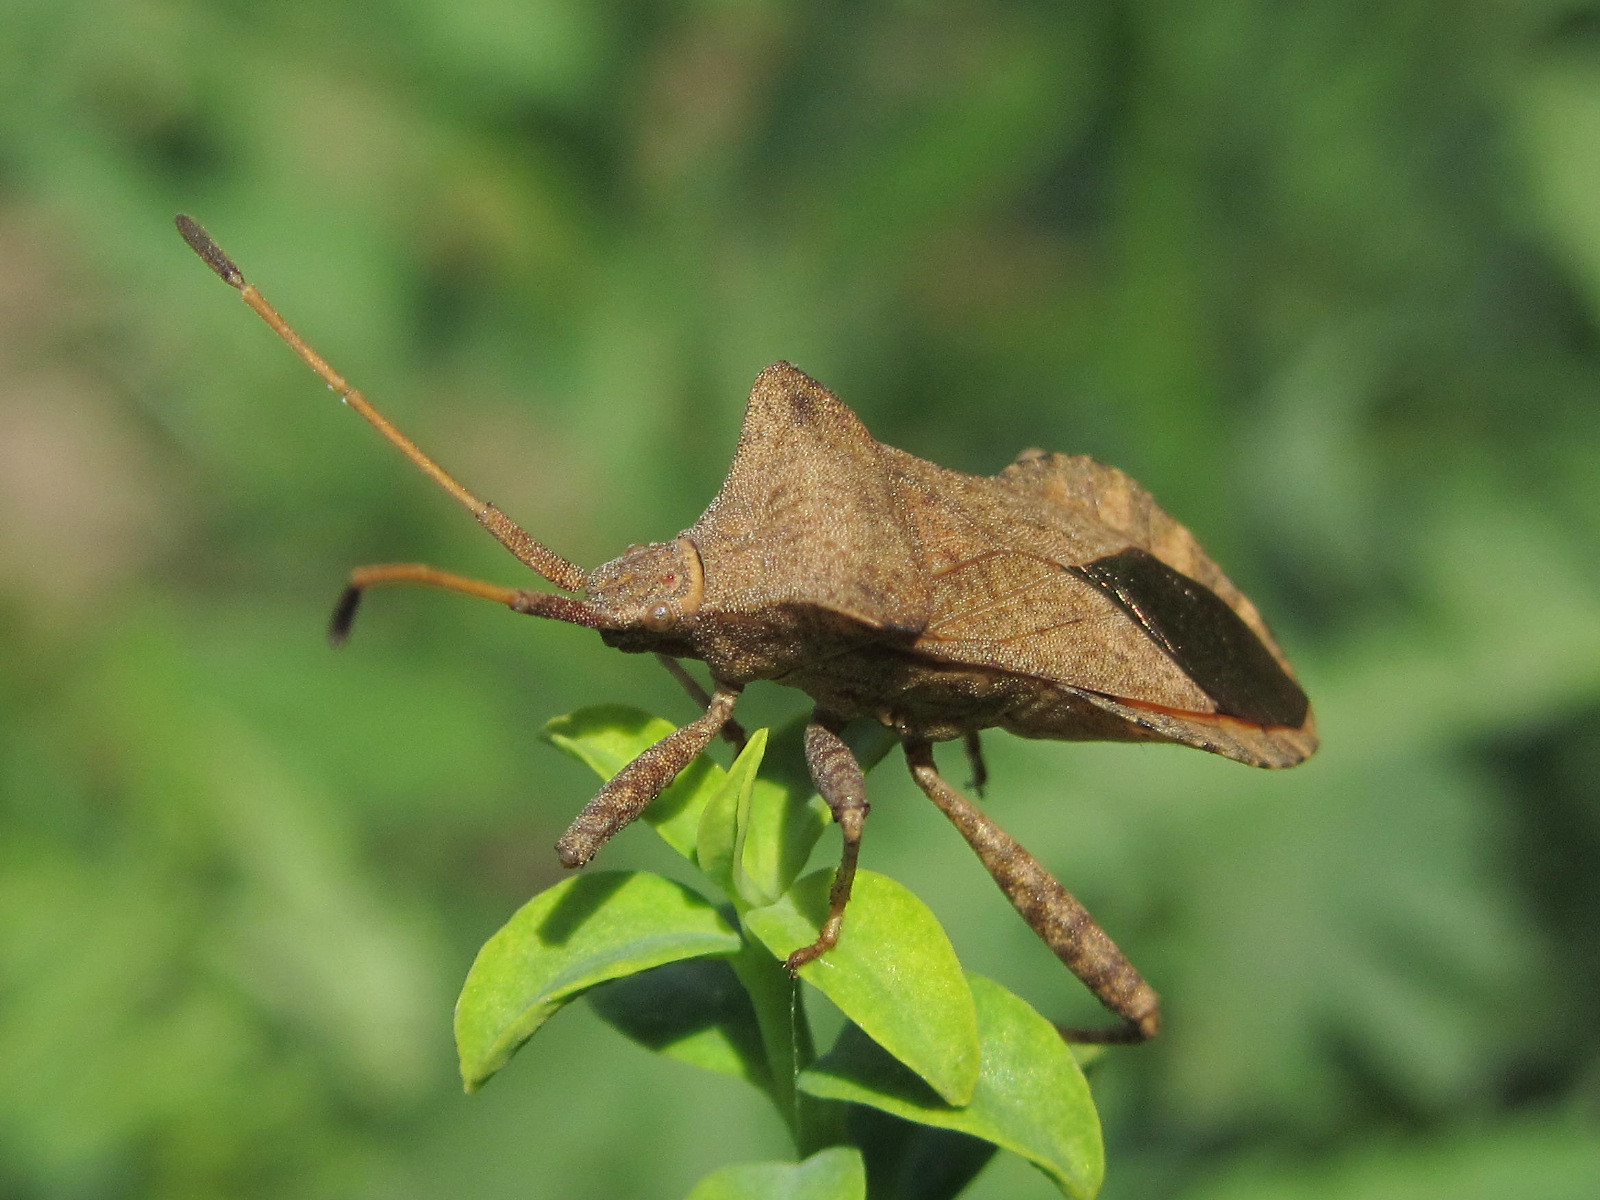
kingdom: Animalia
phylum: Arthropoda
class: Insecta
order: Hemiptera
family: Coreidae
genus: Coreus
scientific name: Coreus marginatus
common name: Dock bug
